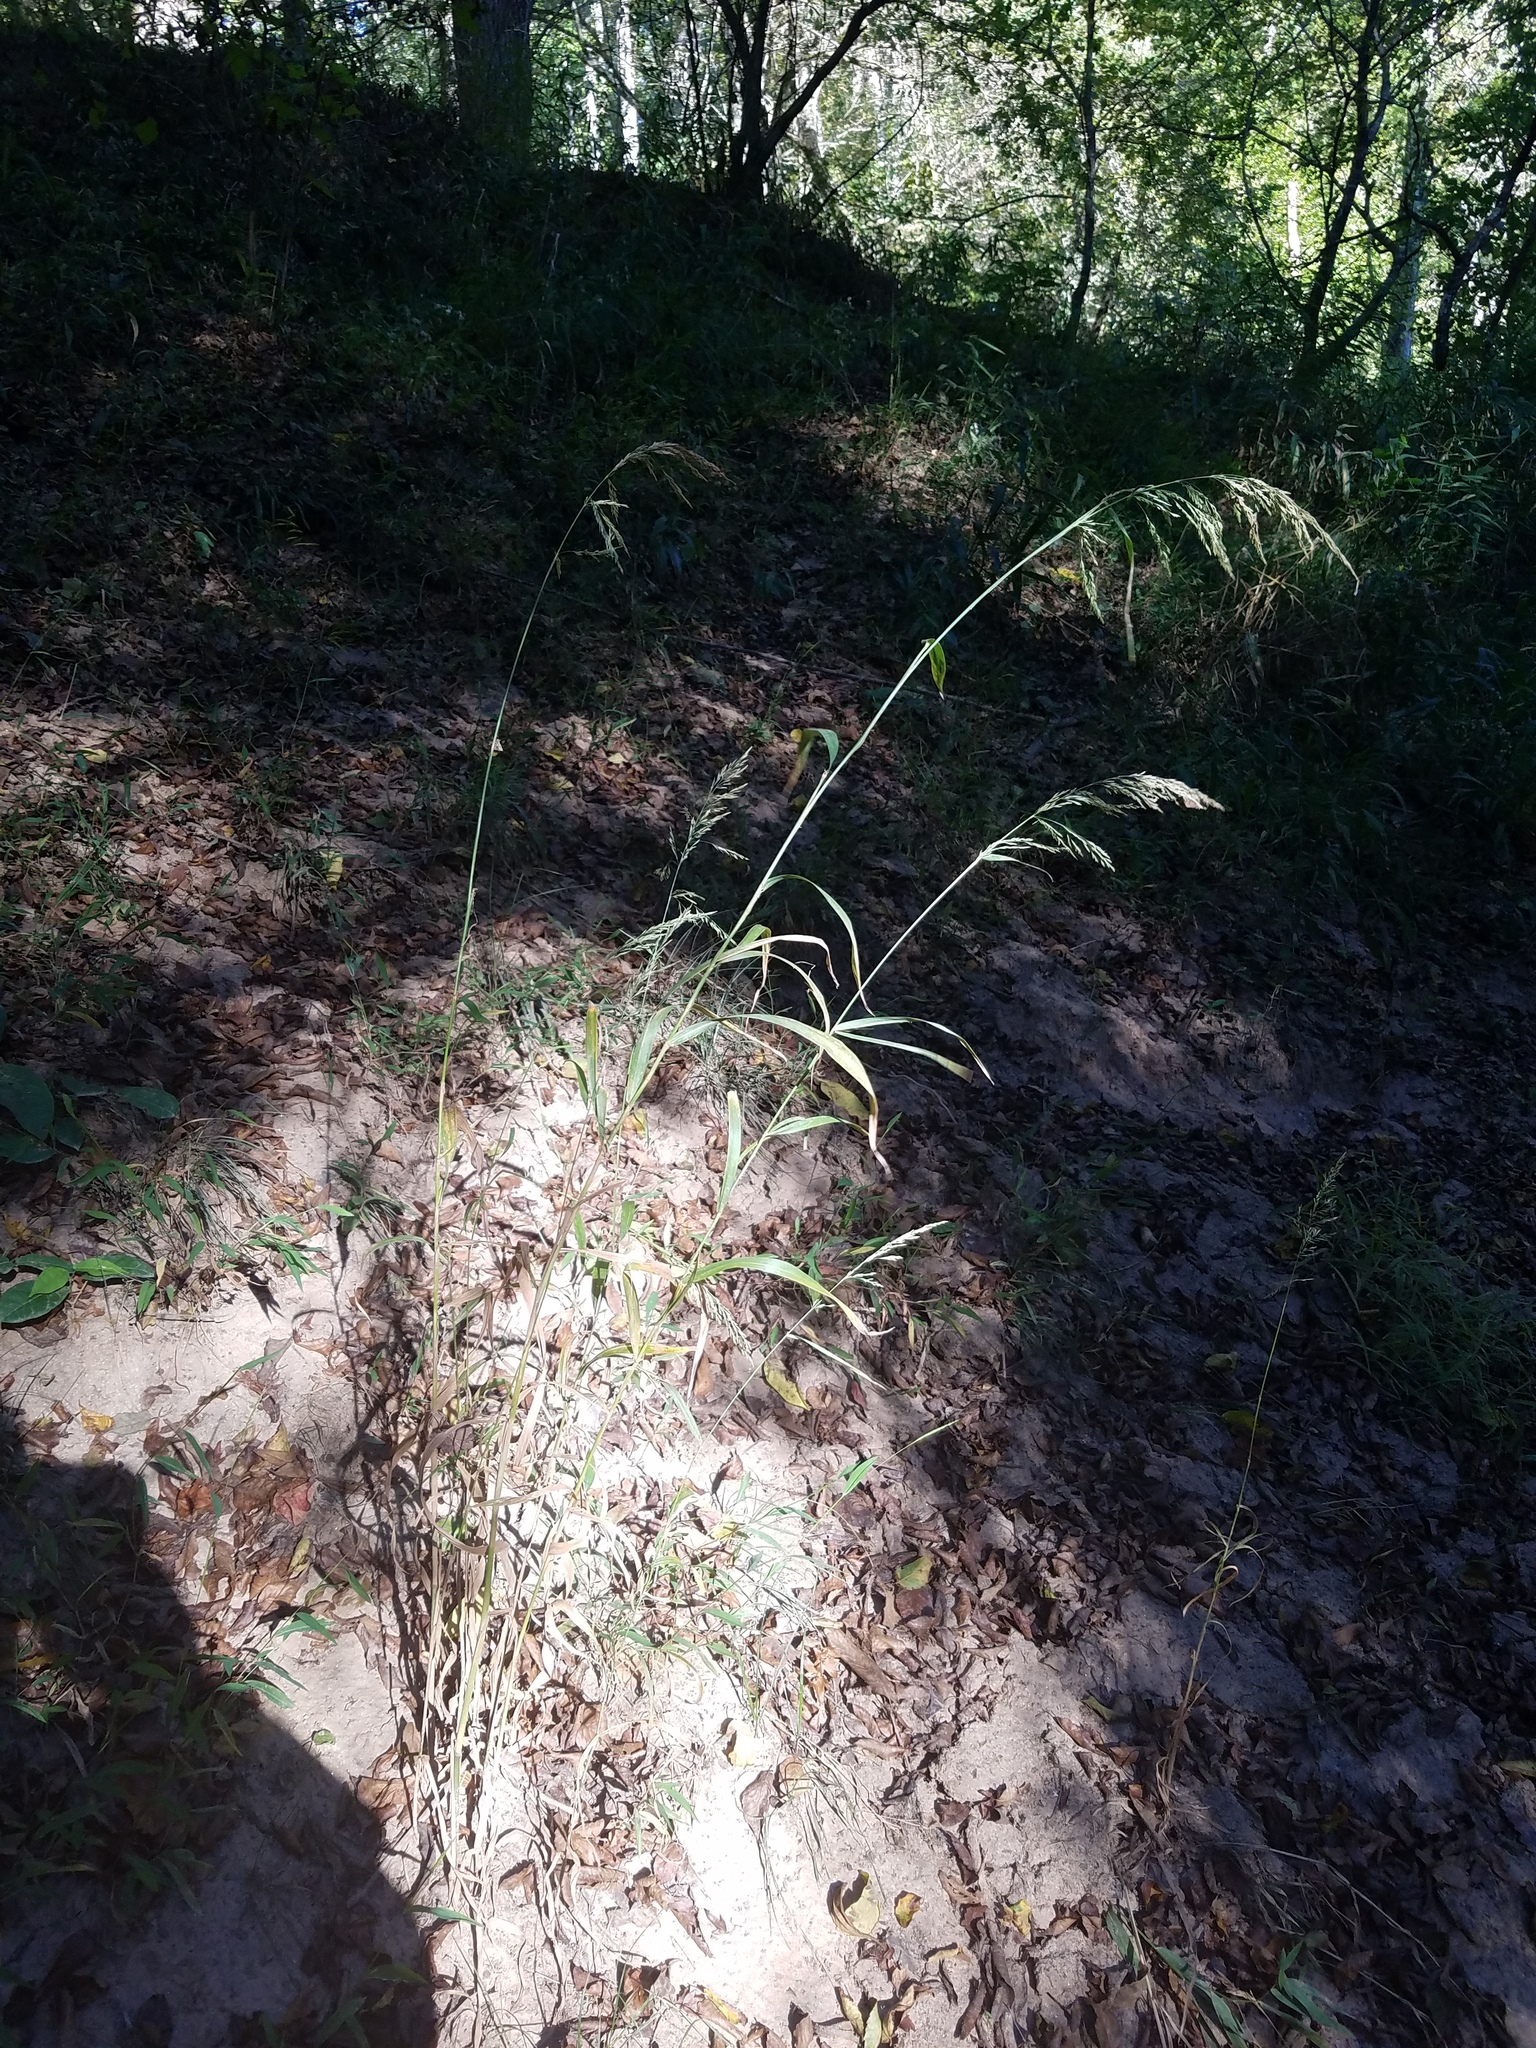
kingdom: Plantae
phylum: Tracheophyta
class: Liliopsida
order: Poales
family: Poaceae
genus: Cinna
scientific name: Cinna arundinacea
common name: Stout woodreed
